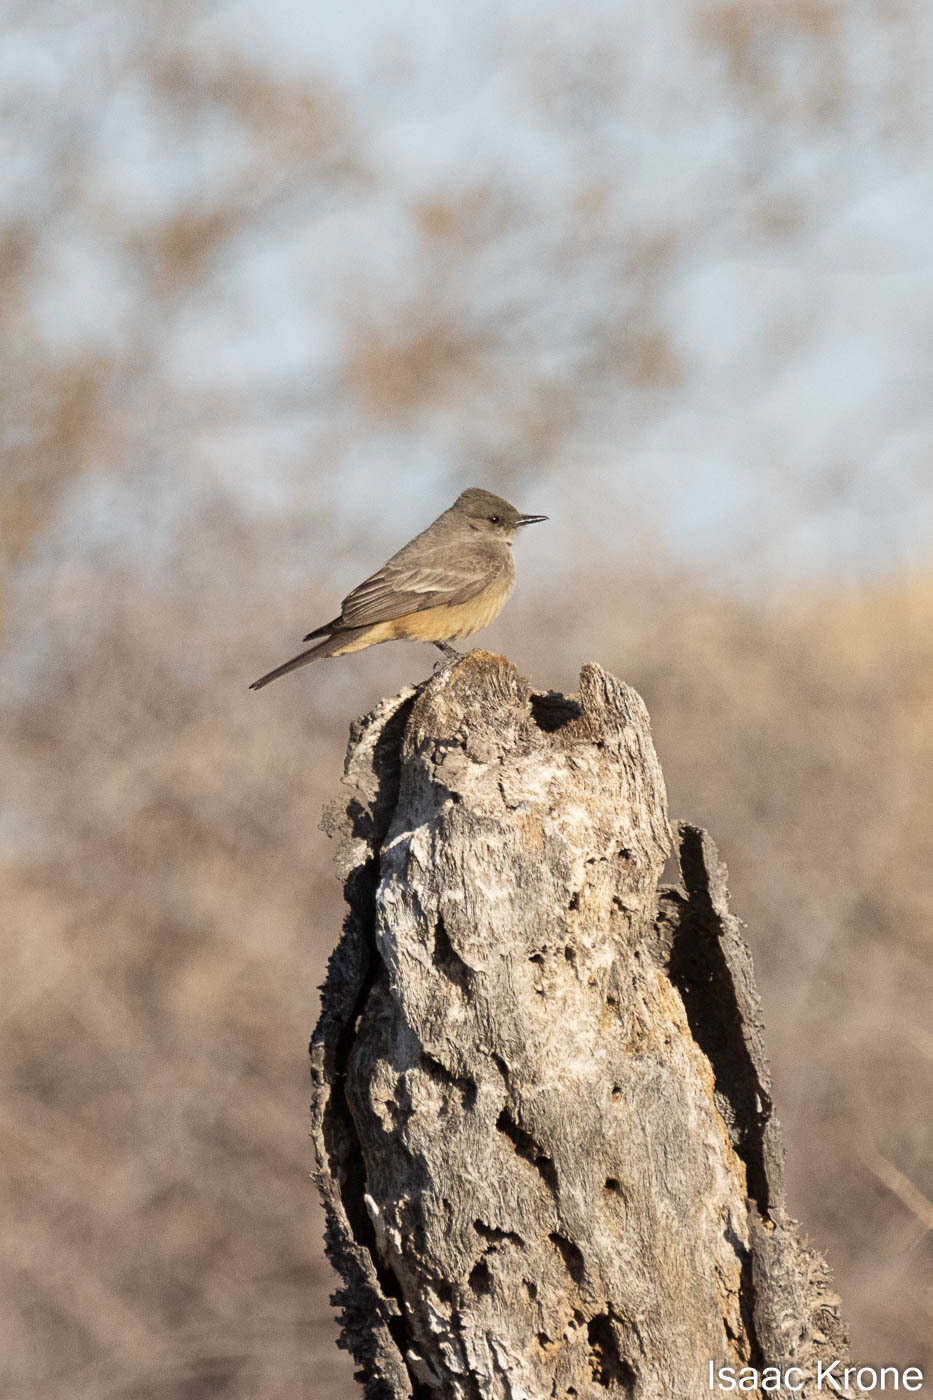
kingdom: Animalia
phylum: Chordata
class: Aves
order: Passeriformes
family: Tyrannidae
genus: Sayornis
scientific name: Sayornis saya
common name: Say's phoebe
